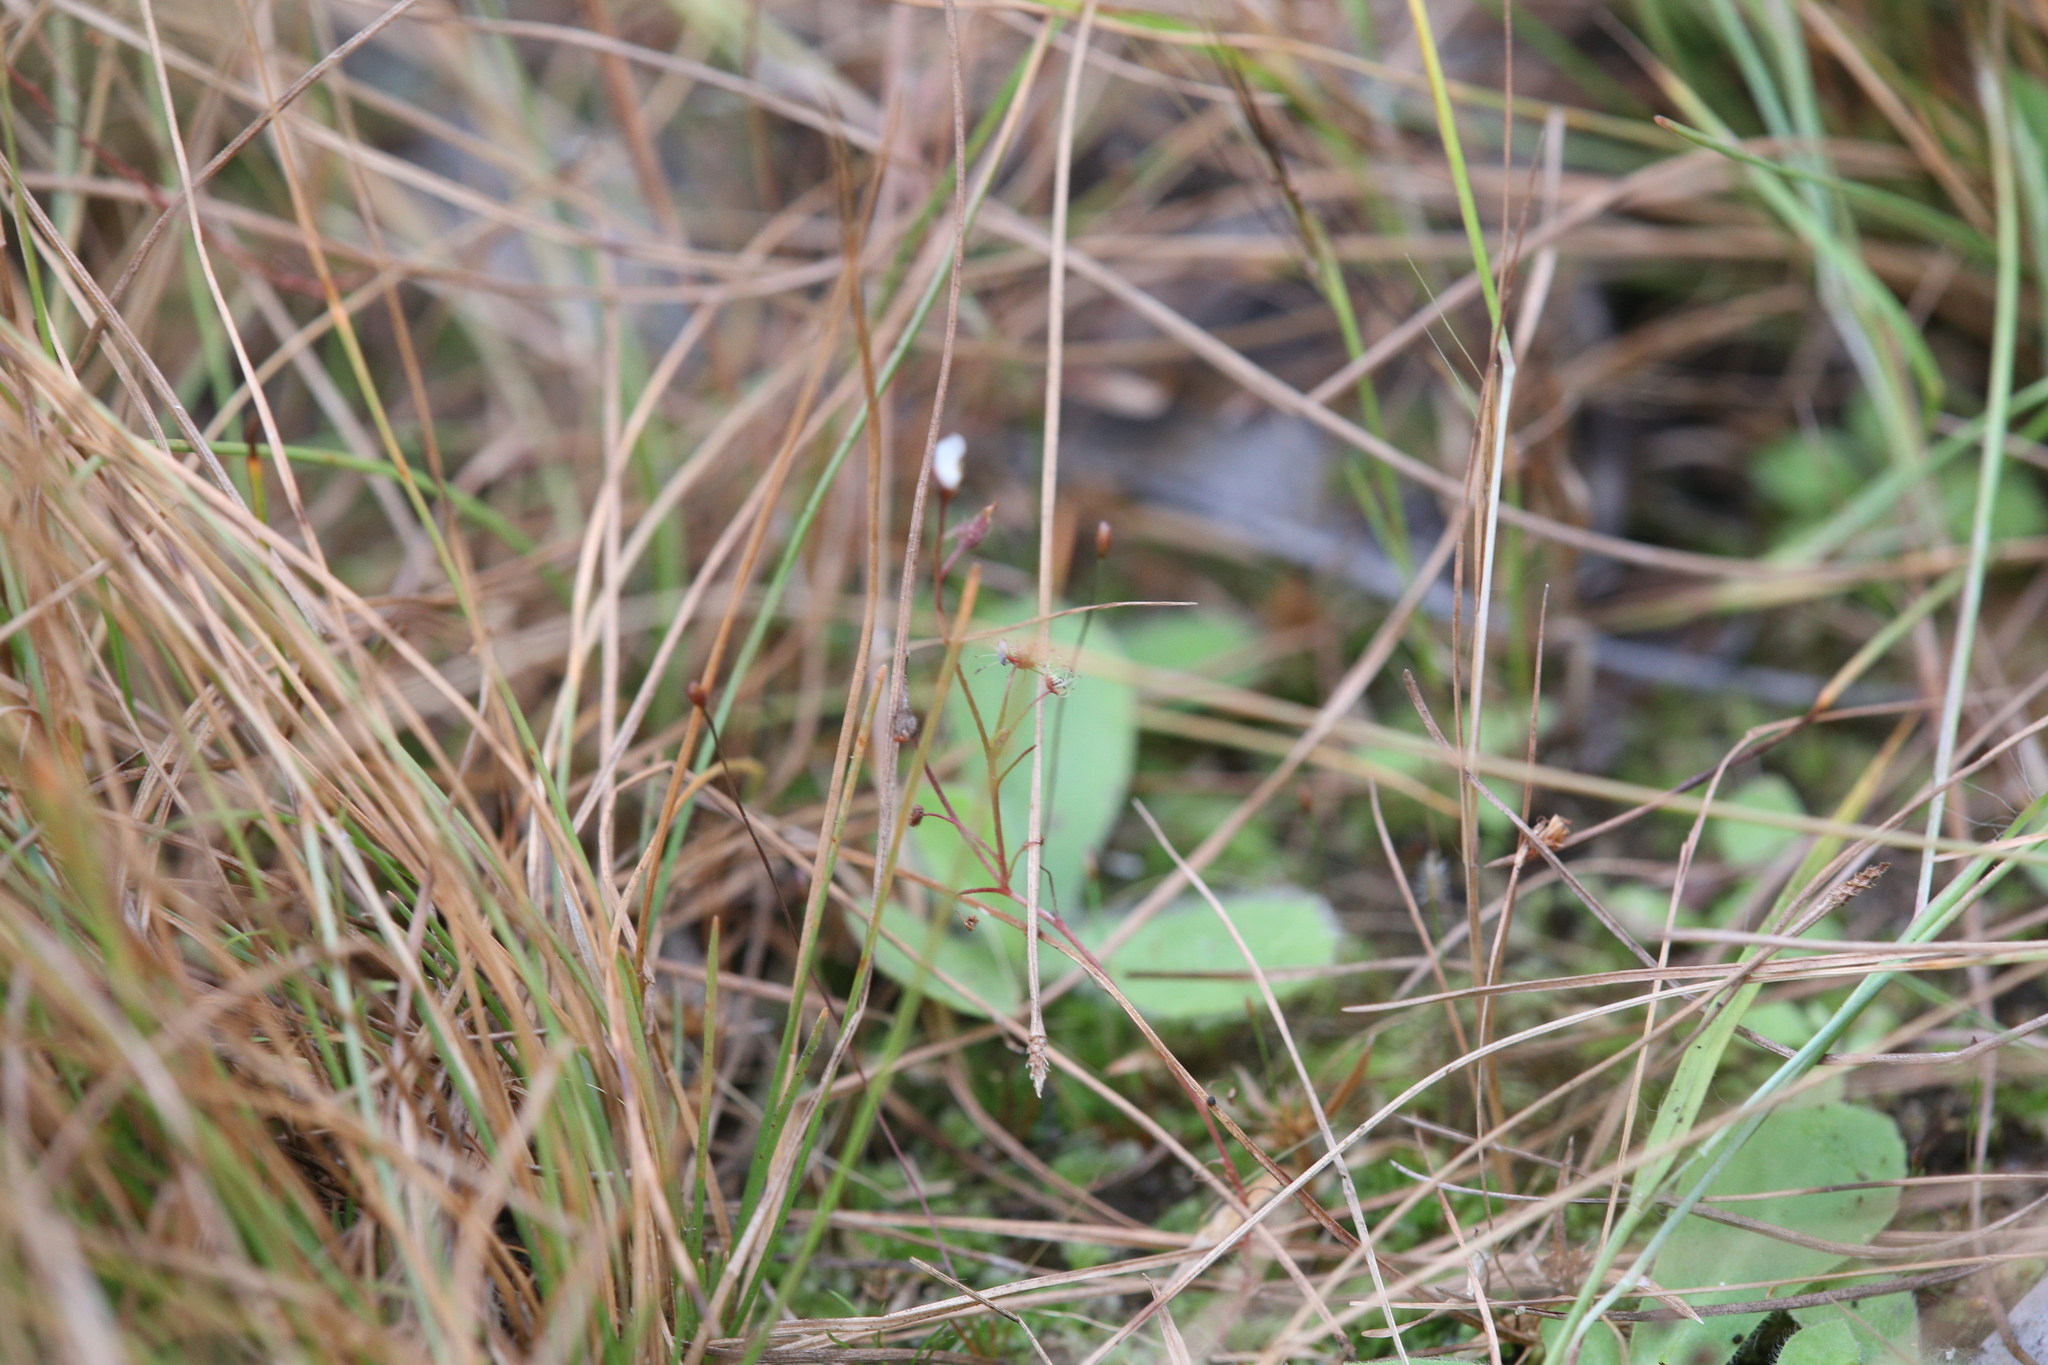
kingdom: Plantae
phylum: Tracheophyta
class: Magnoliopsida
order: Caryophyllales
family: Droseraceae
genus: Drosera
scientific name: Drosera banksii
